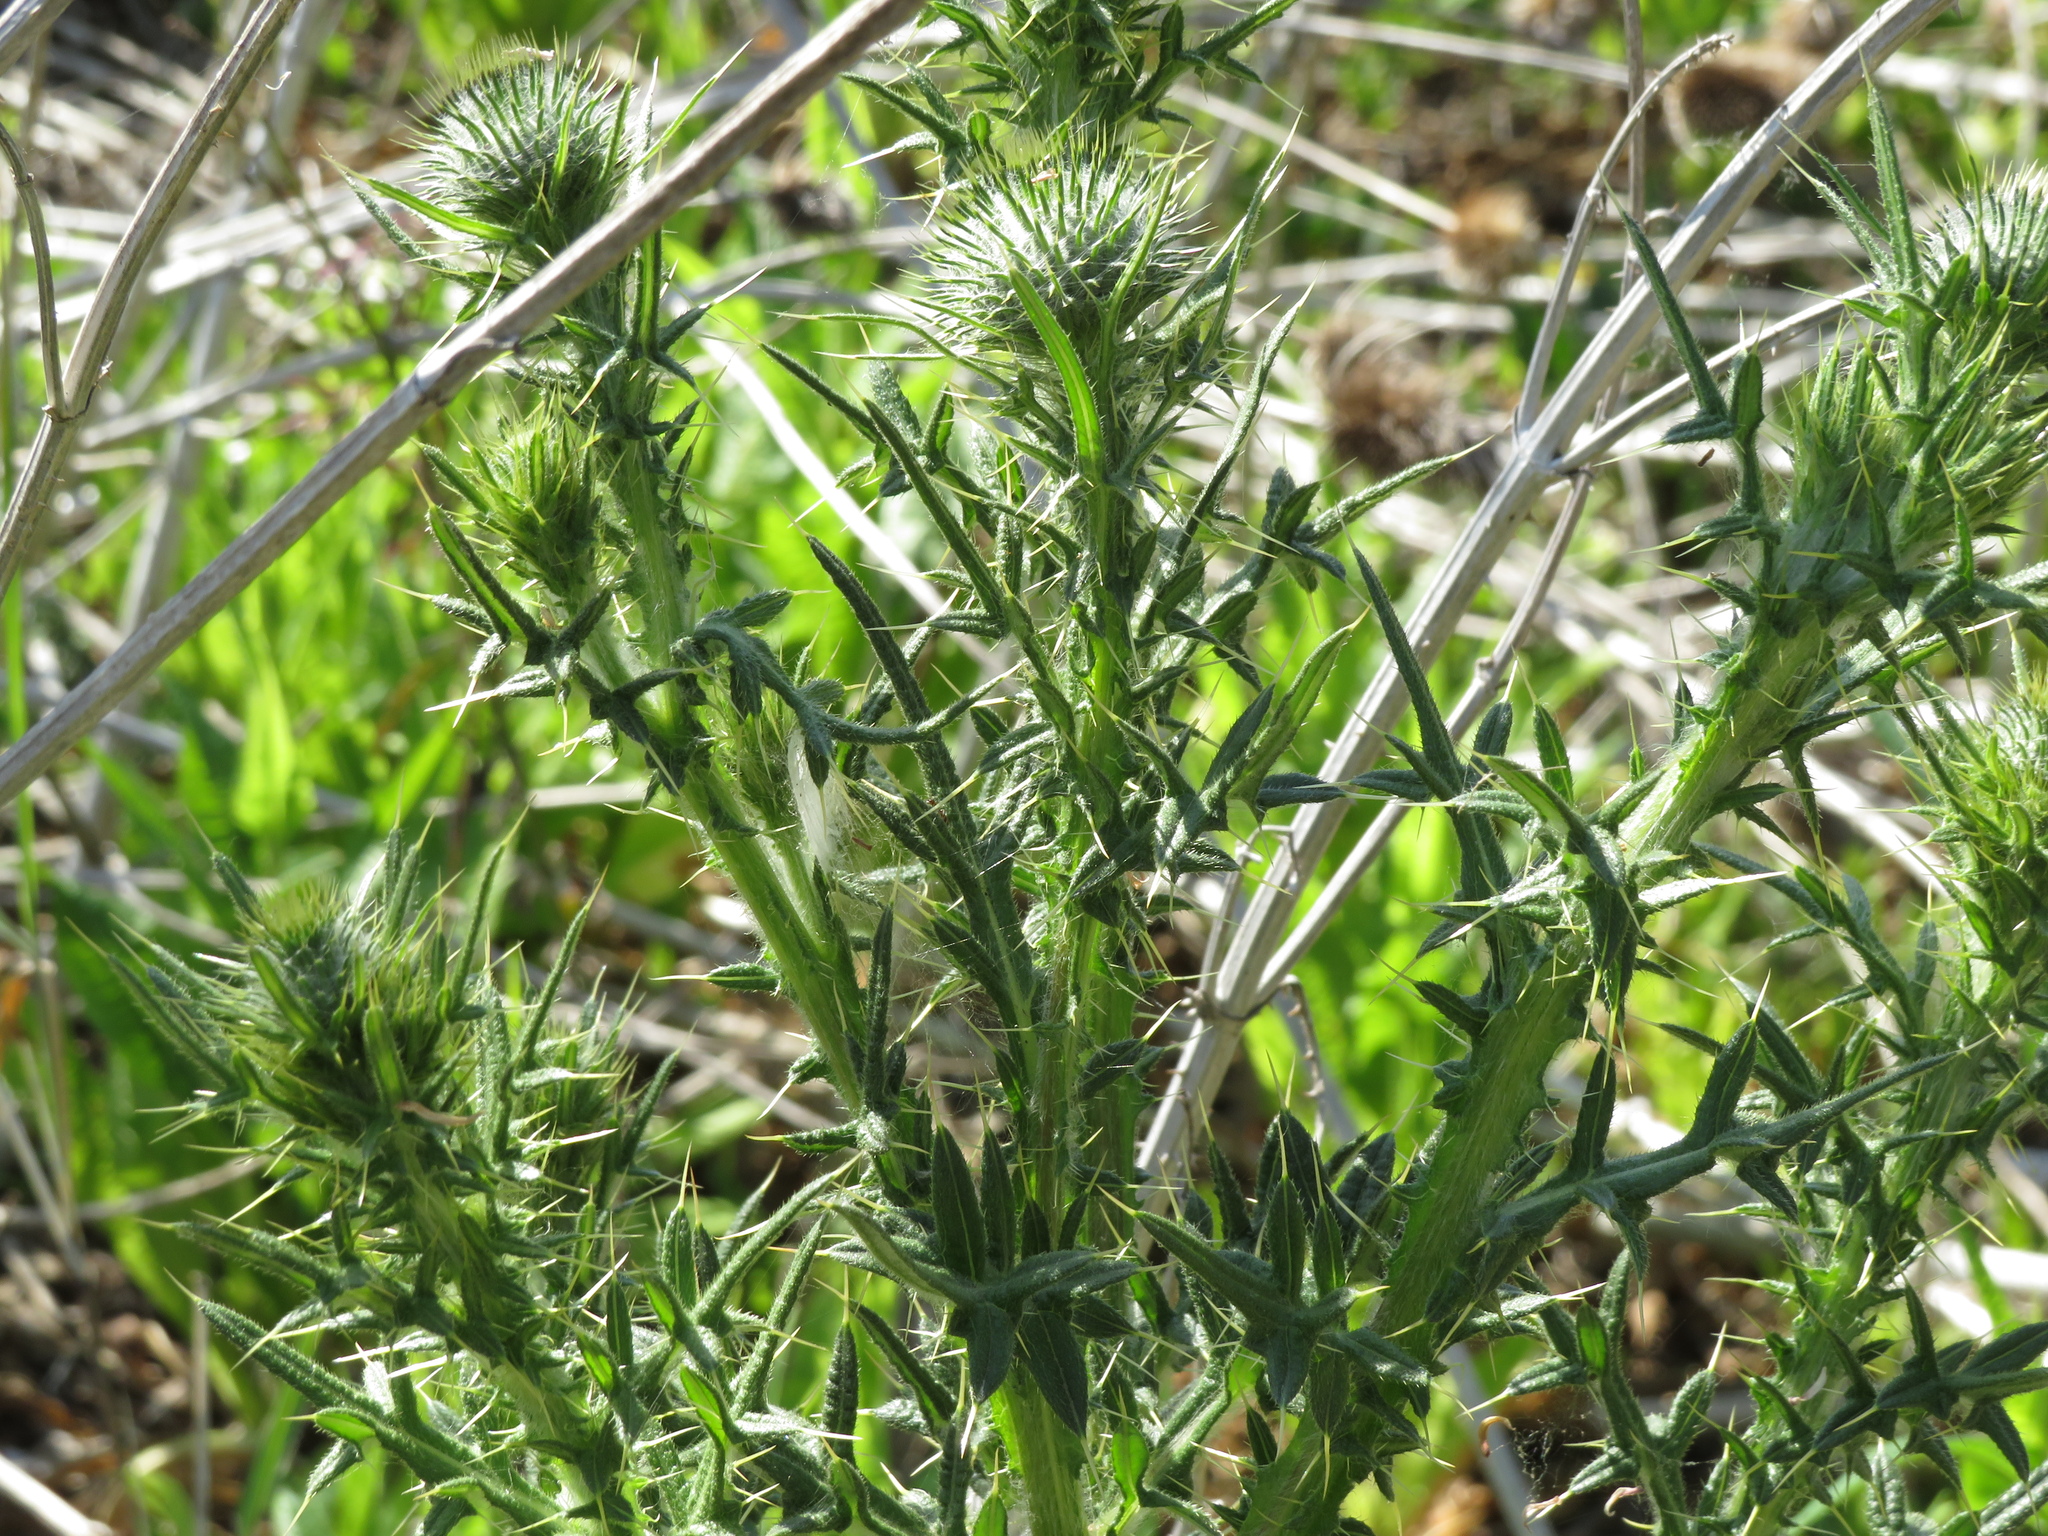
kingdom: Plantae
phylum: Tracheophyta
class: Magnoliopsida
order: Asterales
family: Asteraceae
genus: Cirsium
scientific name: Cirsium vulgare
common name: Bull thistle
